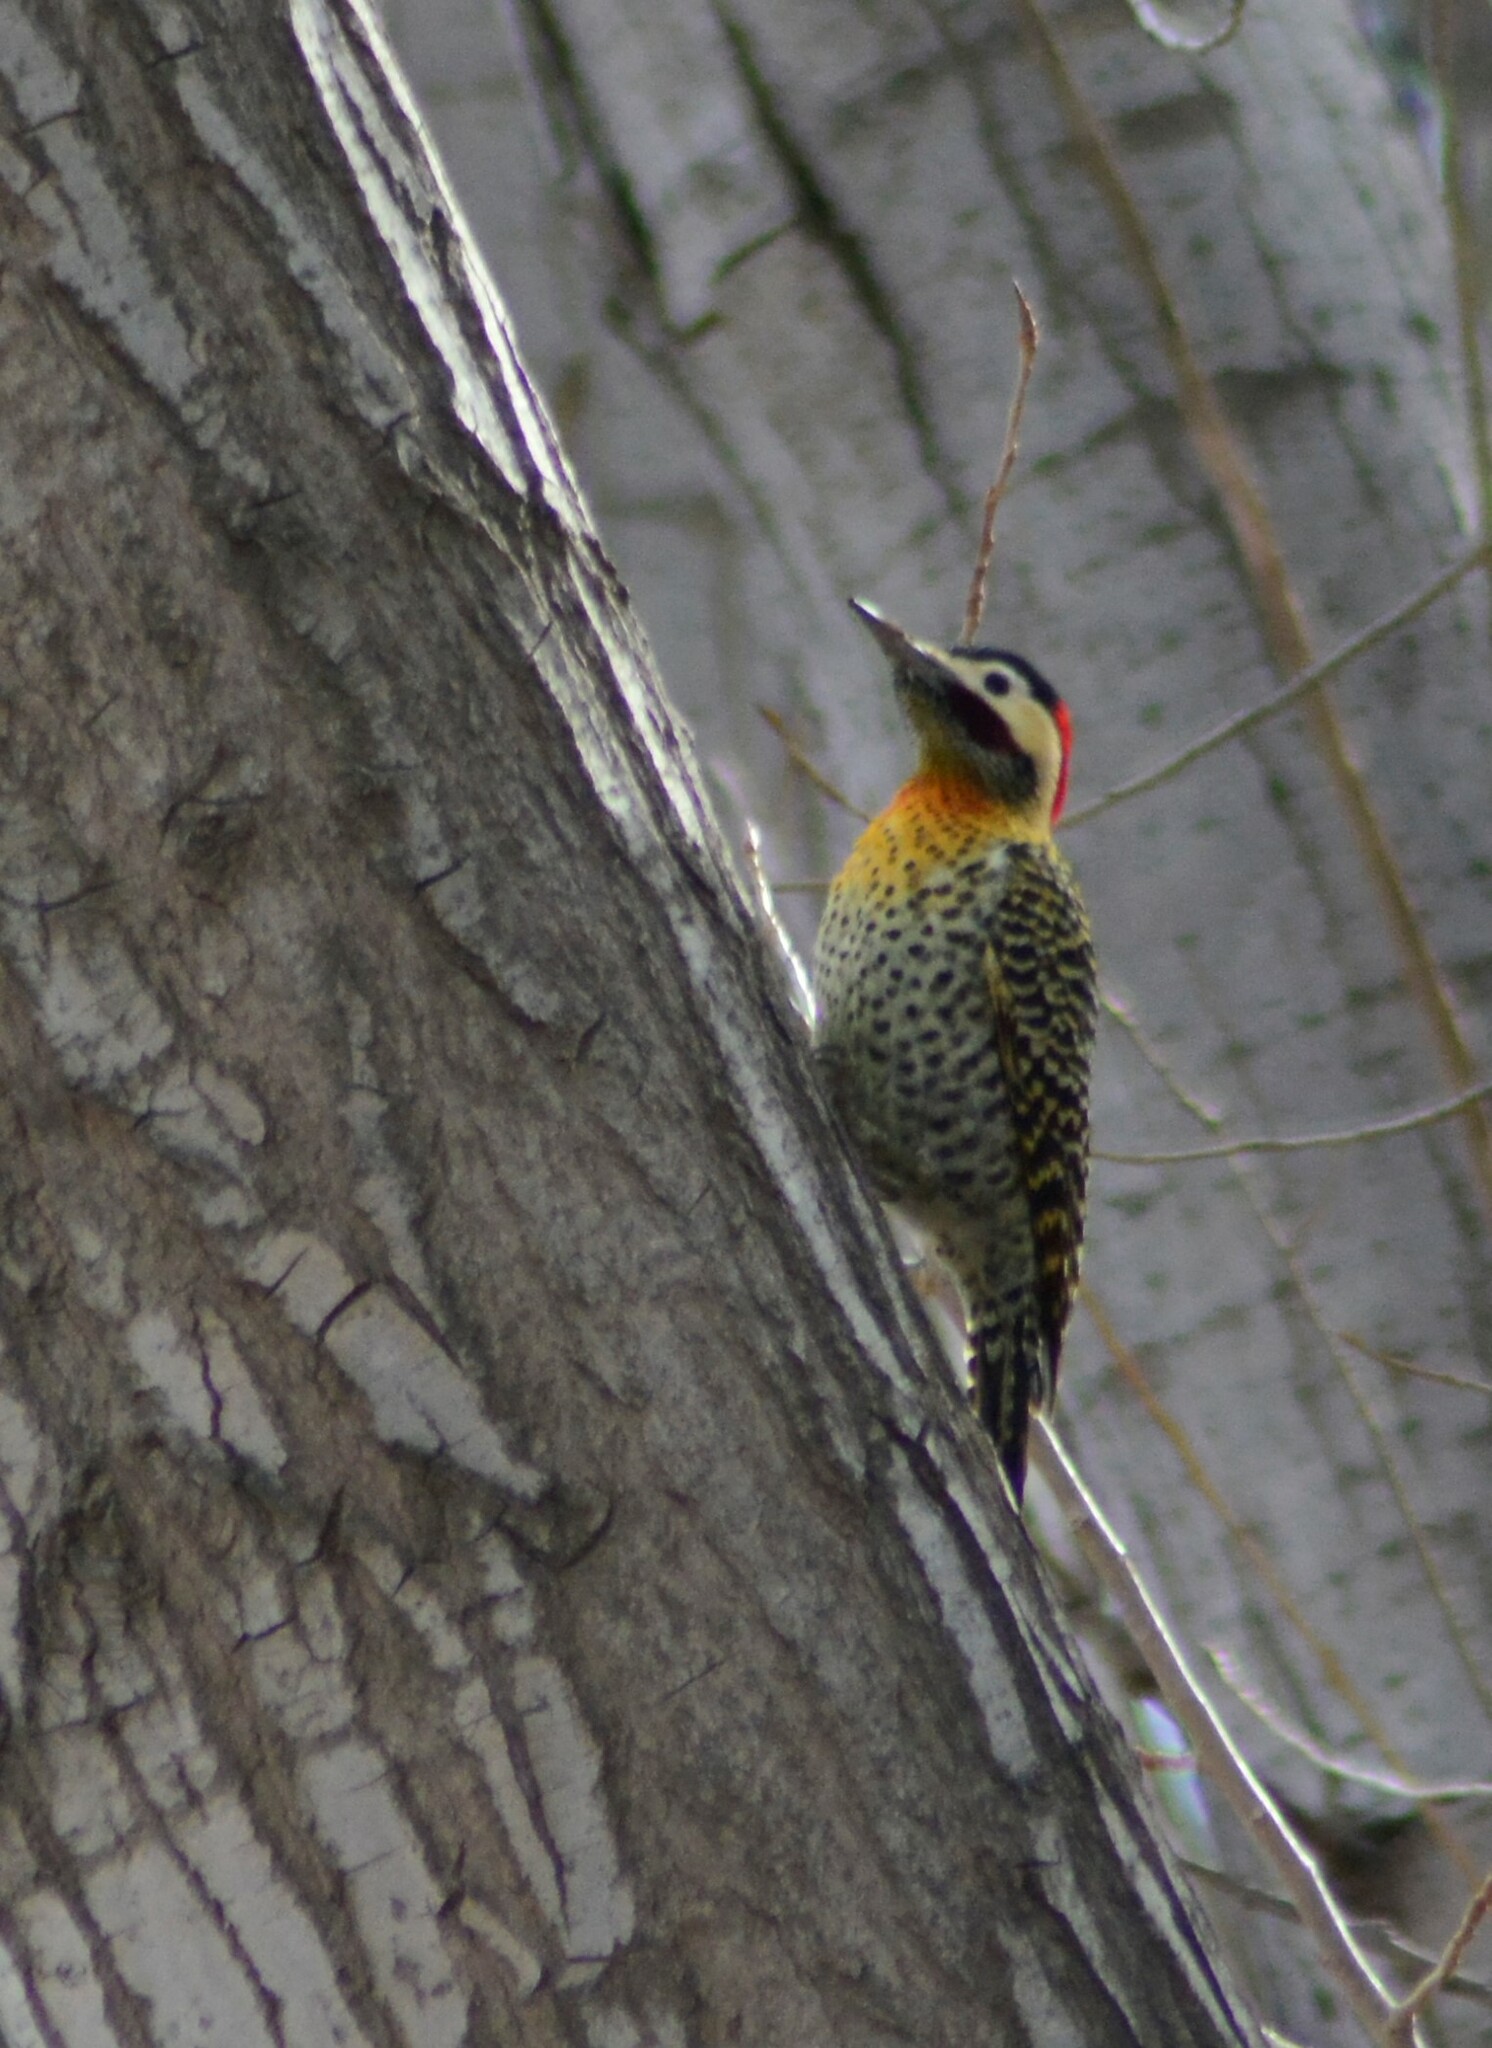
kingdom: Animalia
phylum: Chordata
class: Aves
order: Piciformes
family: Picidae
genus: Colaptes
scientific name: Colaptes melanochloros
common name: Green-barred woodpecker
